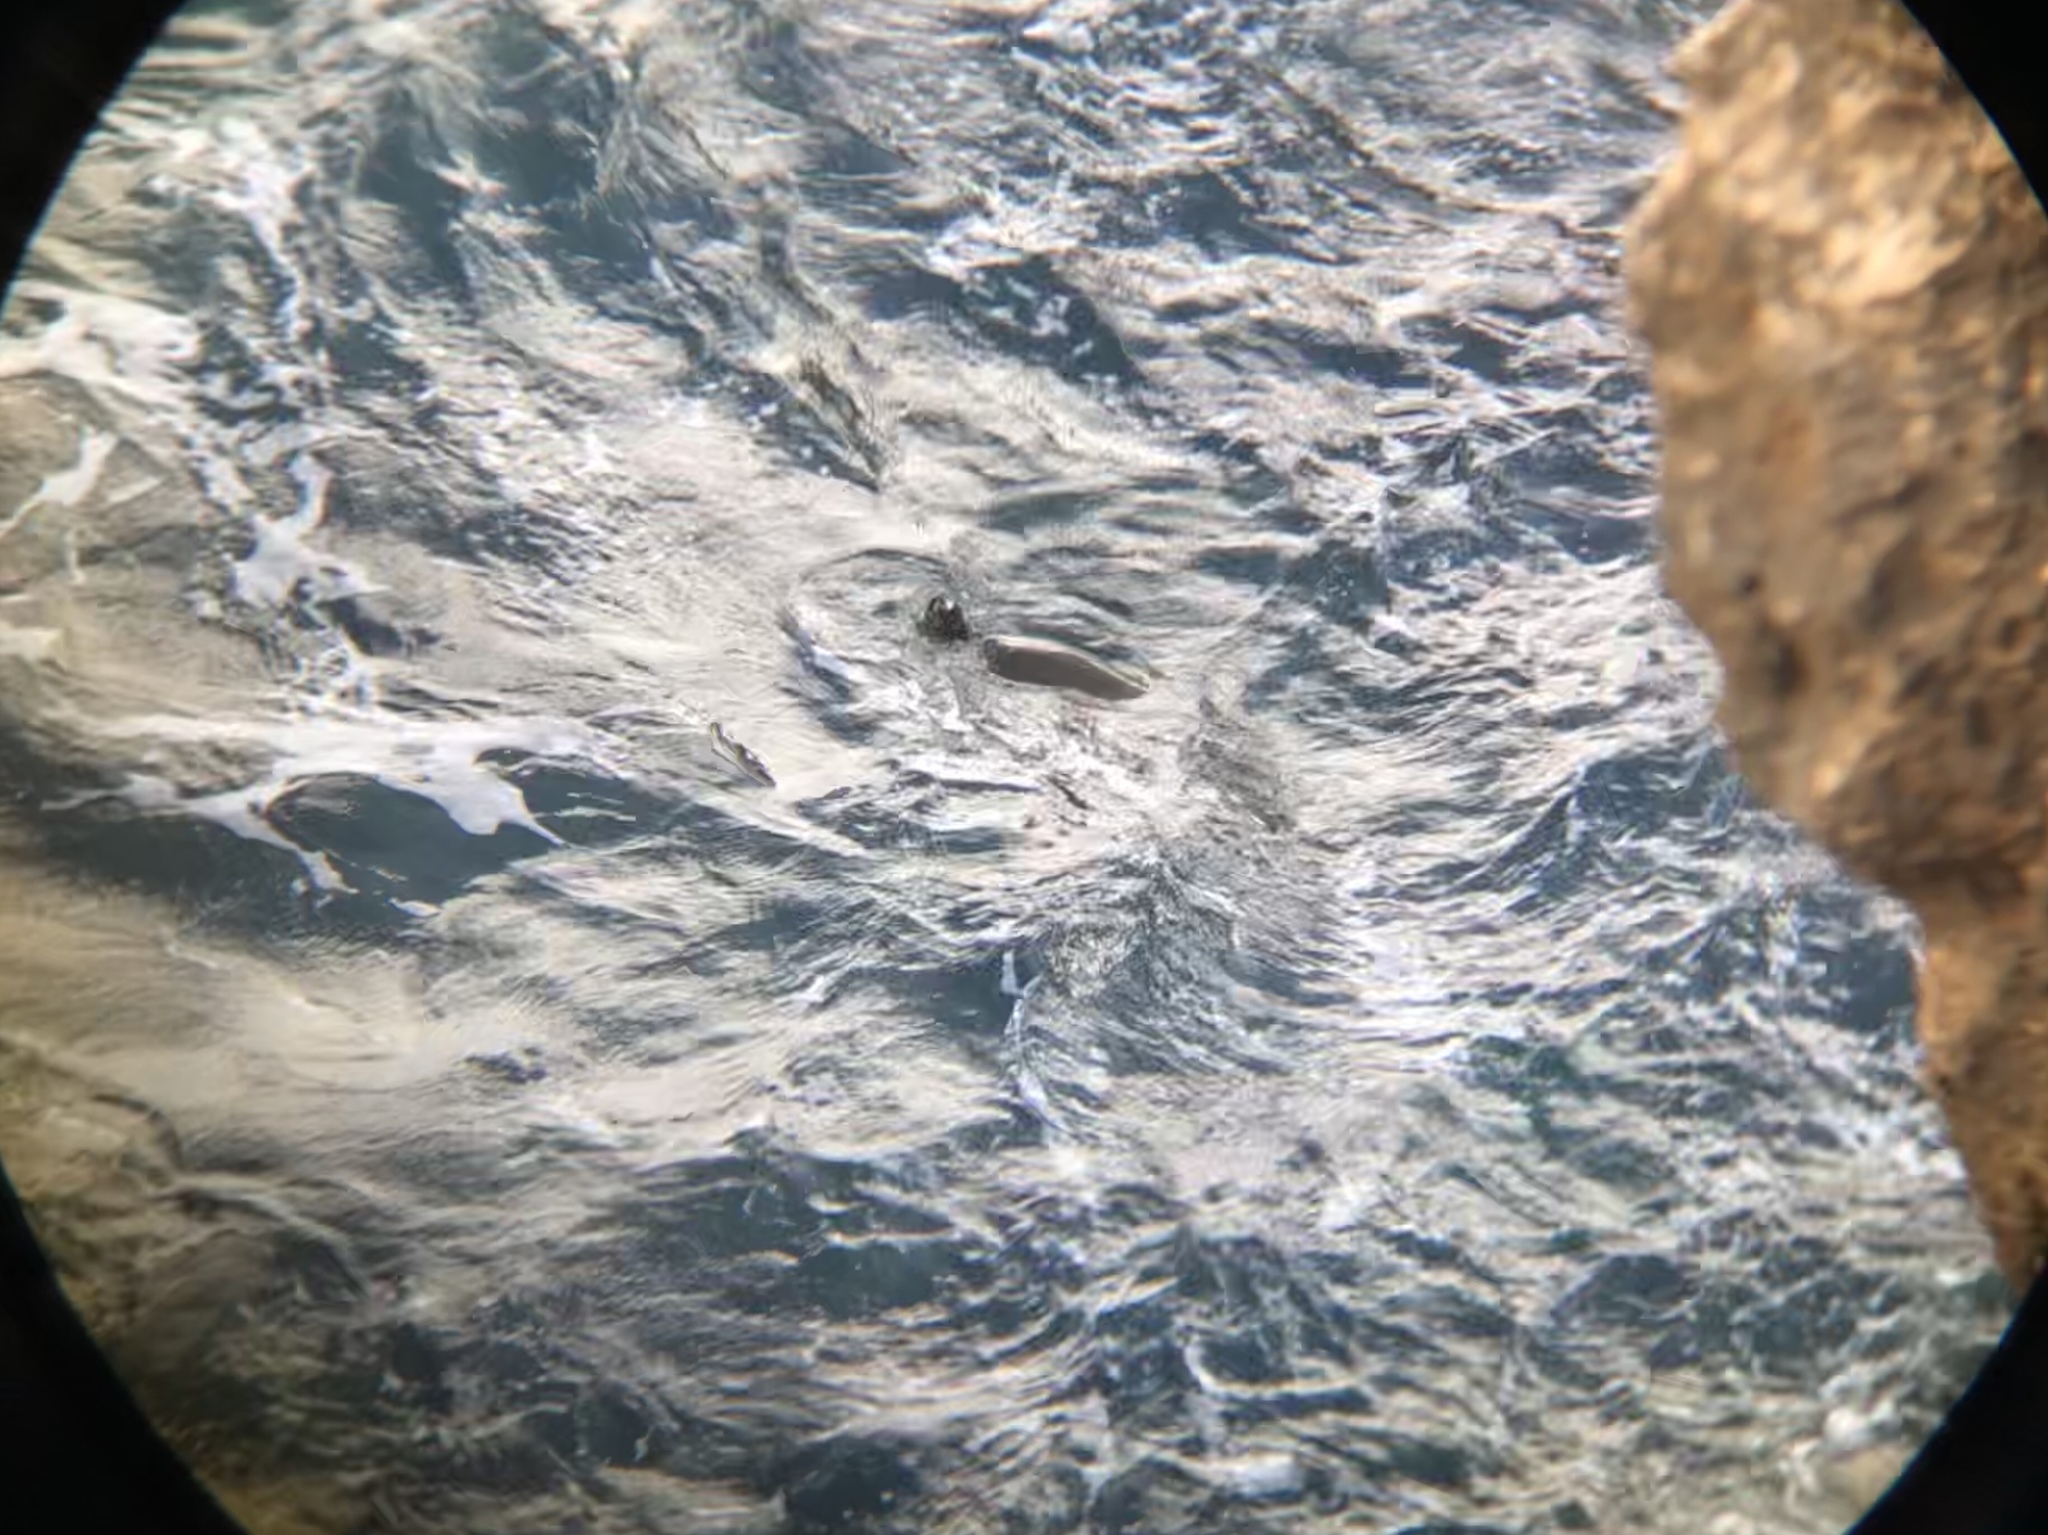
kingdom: Animalia
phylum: Chordata
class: Testudines
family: Cheloniidae
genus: Chelonia
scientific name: Chelonia mydas
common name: Green turtle
